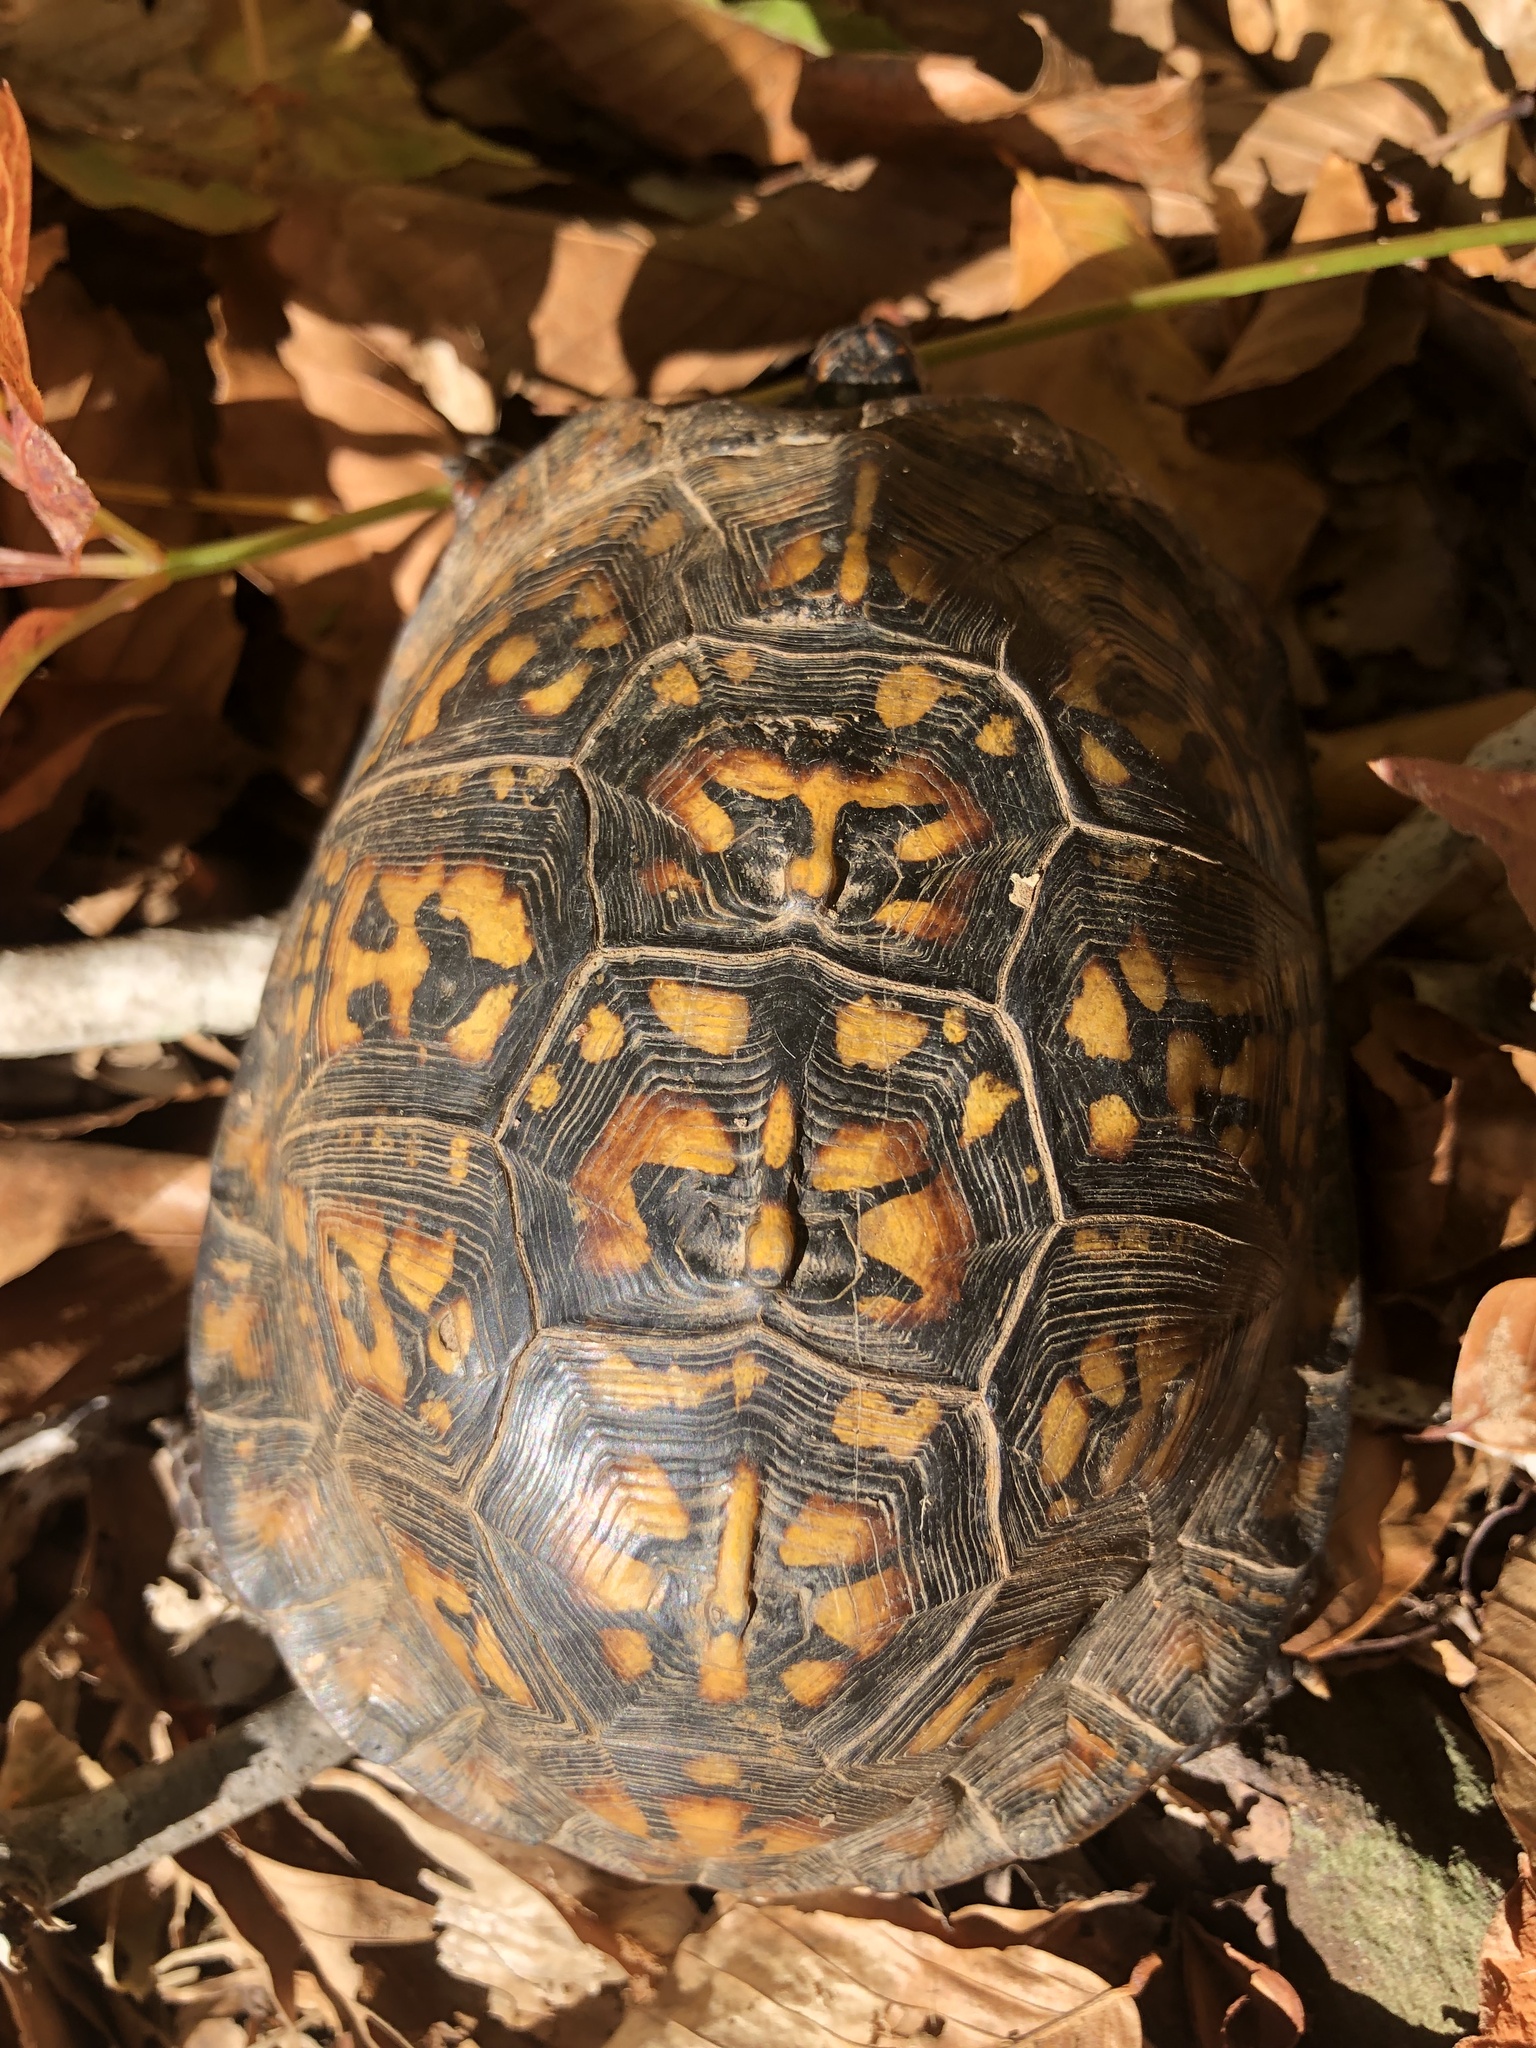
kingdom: Animalia
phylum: Chordata
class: Testudines
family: Emydidae
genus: Terrapene
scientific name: Terrapene carolina
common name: Common box turtle
